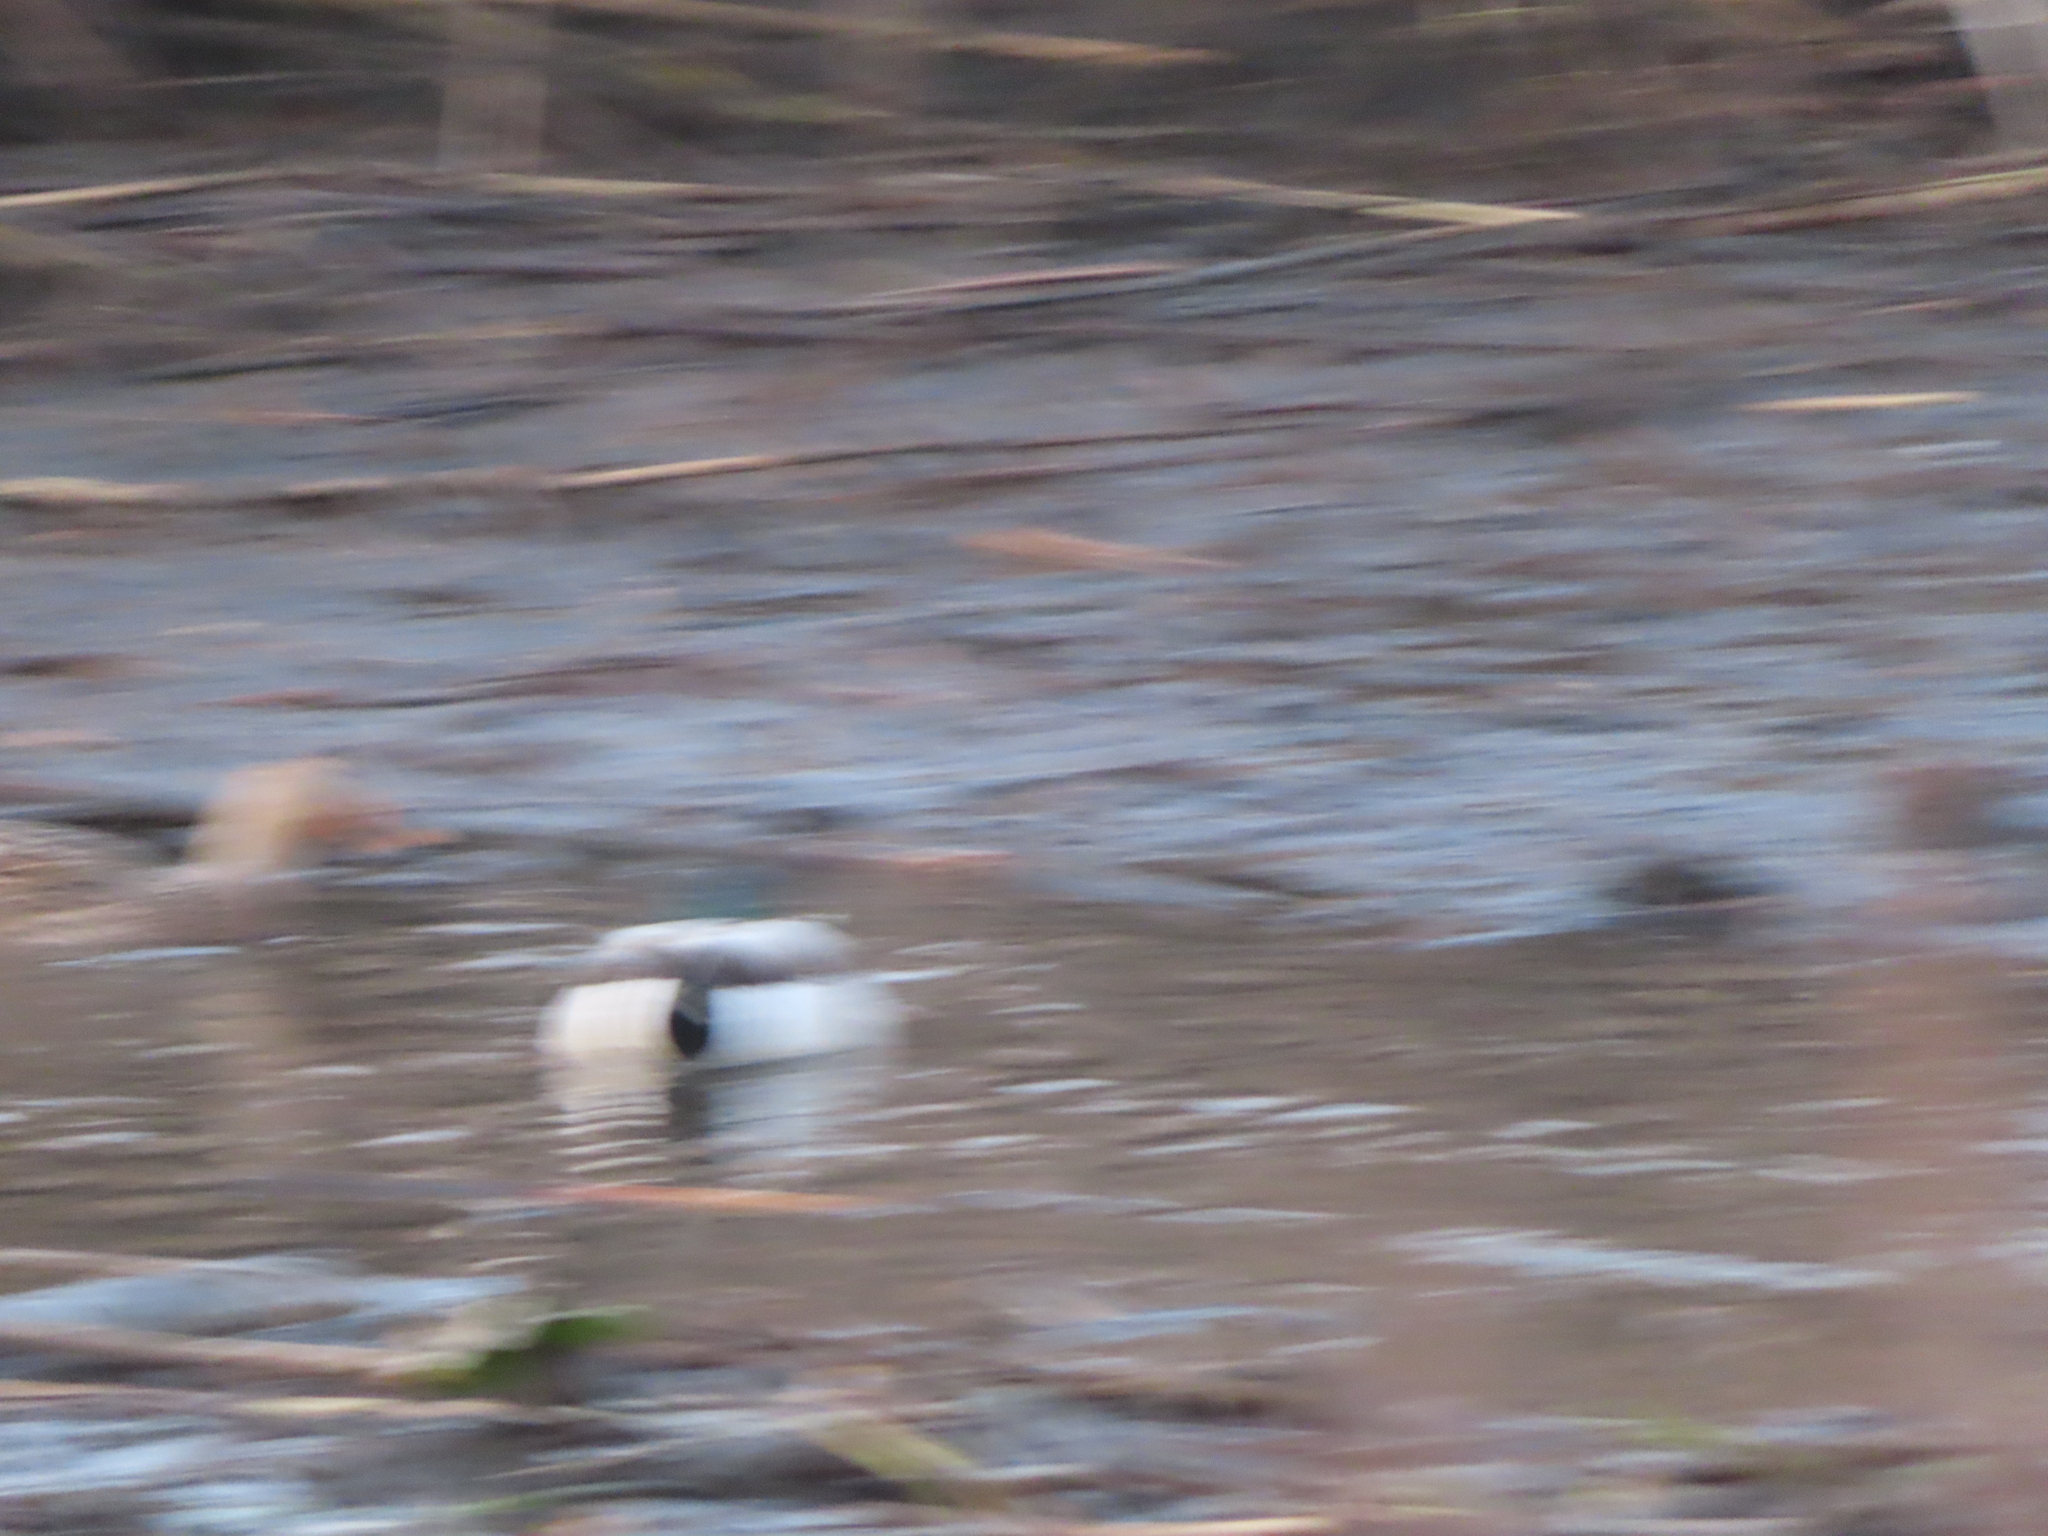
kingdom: Animalia
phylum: Chordata
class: Aves
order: Anseriformes
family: Anatidae
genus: Anas
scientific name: Anas platyrhynchos
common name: Mallard
